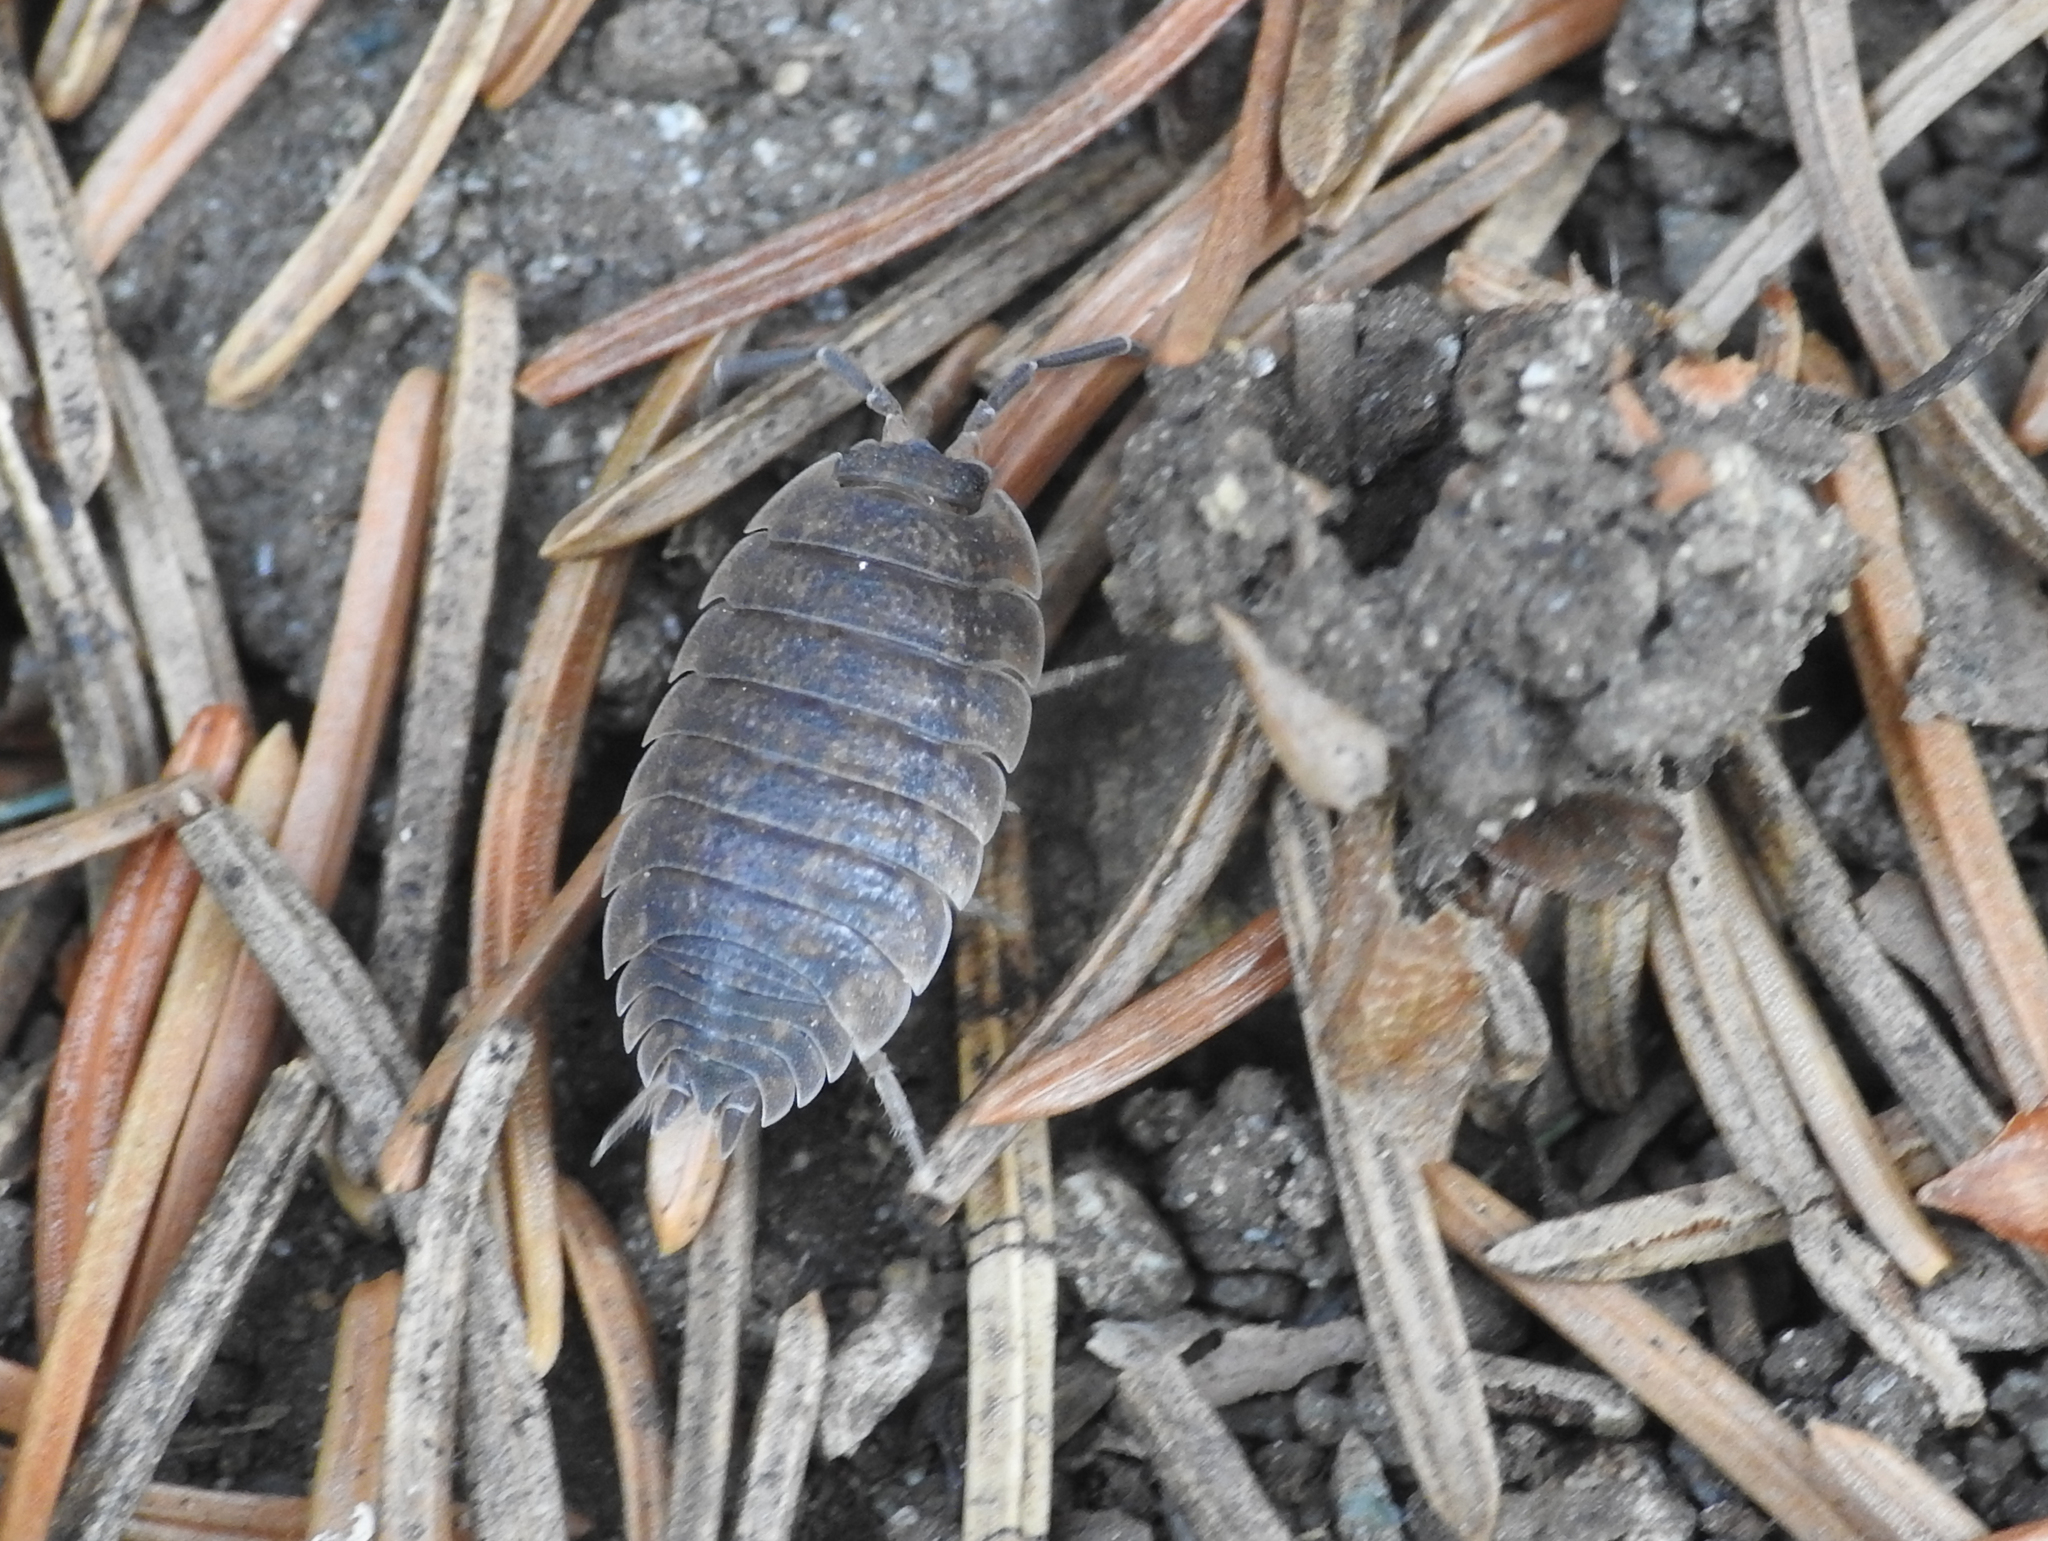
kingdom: Animalia
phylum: Arthropoda
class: Malacostraca
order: Isopoda
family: Porcellionidae
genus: Porcellio
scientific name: Porcellio scaber
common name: Common rough woodlouse
